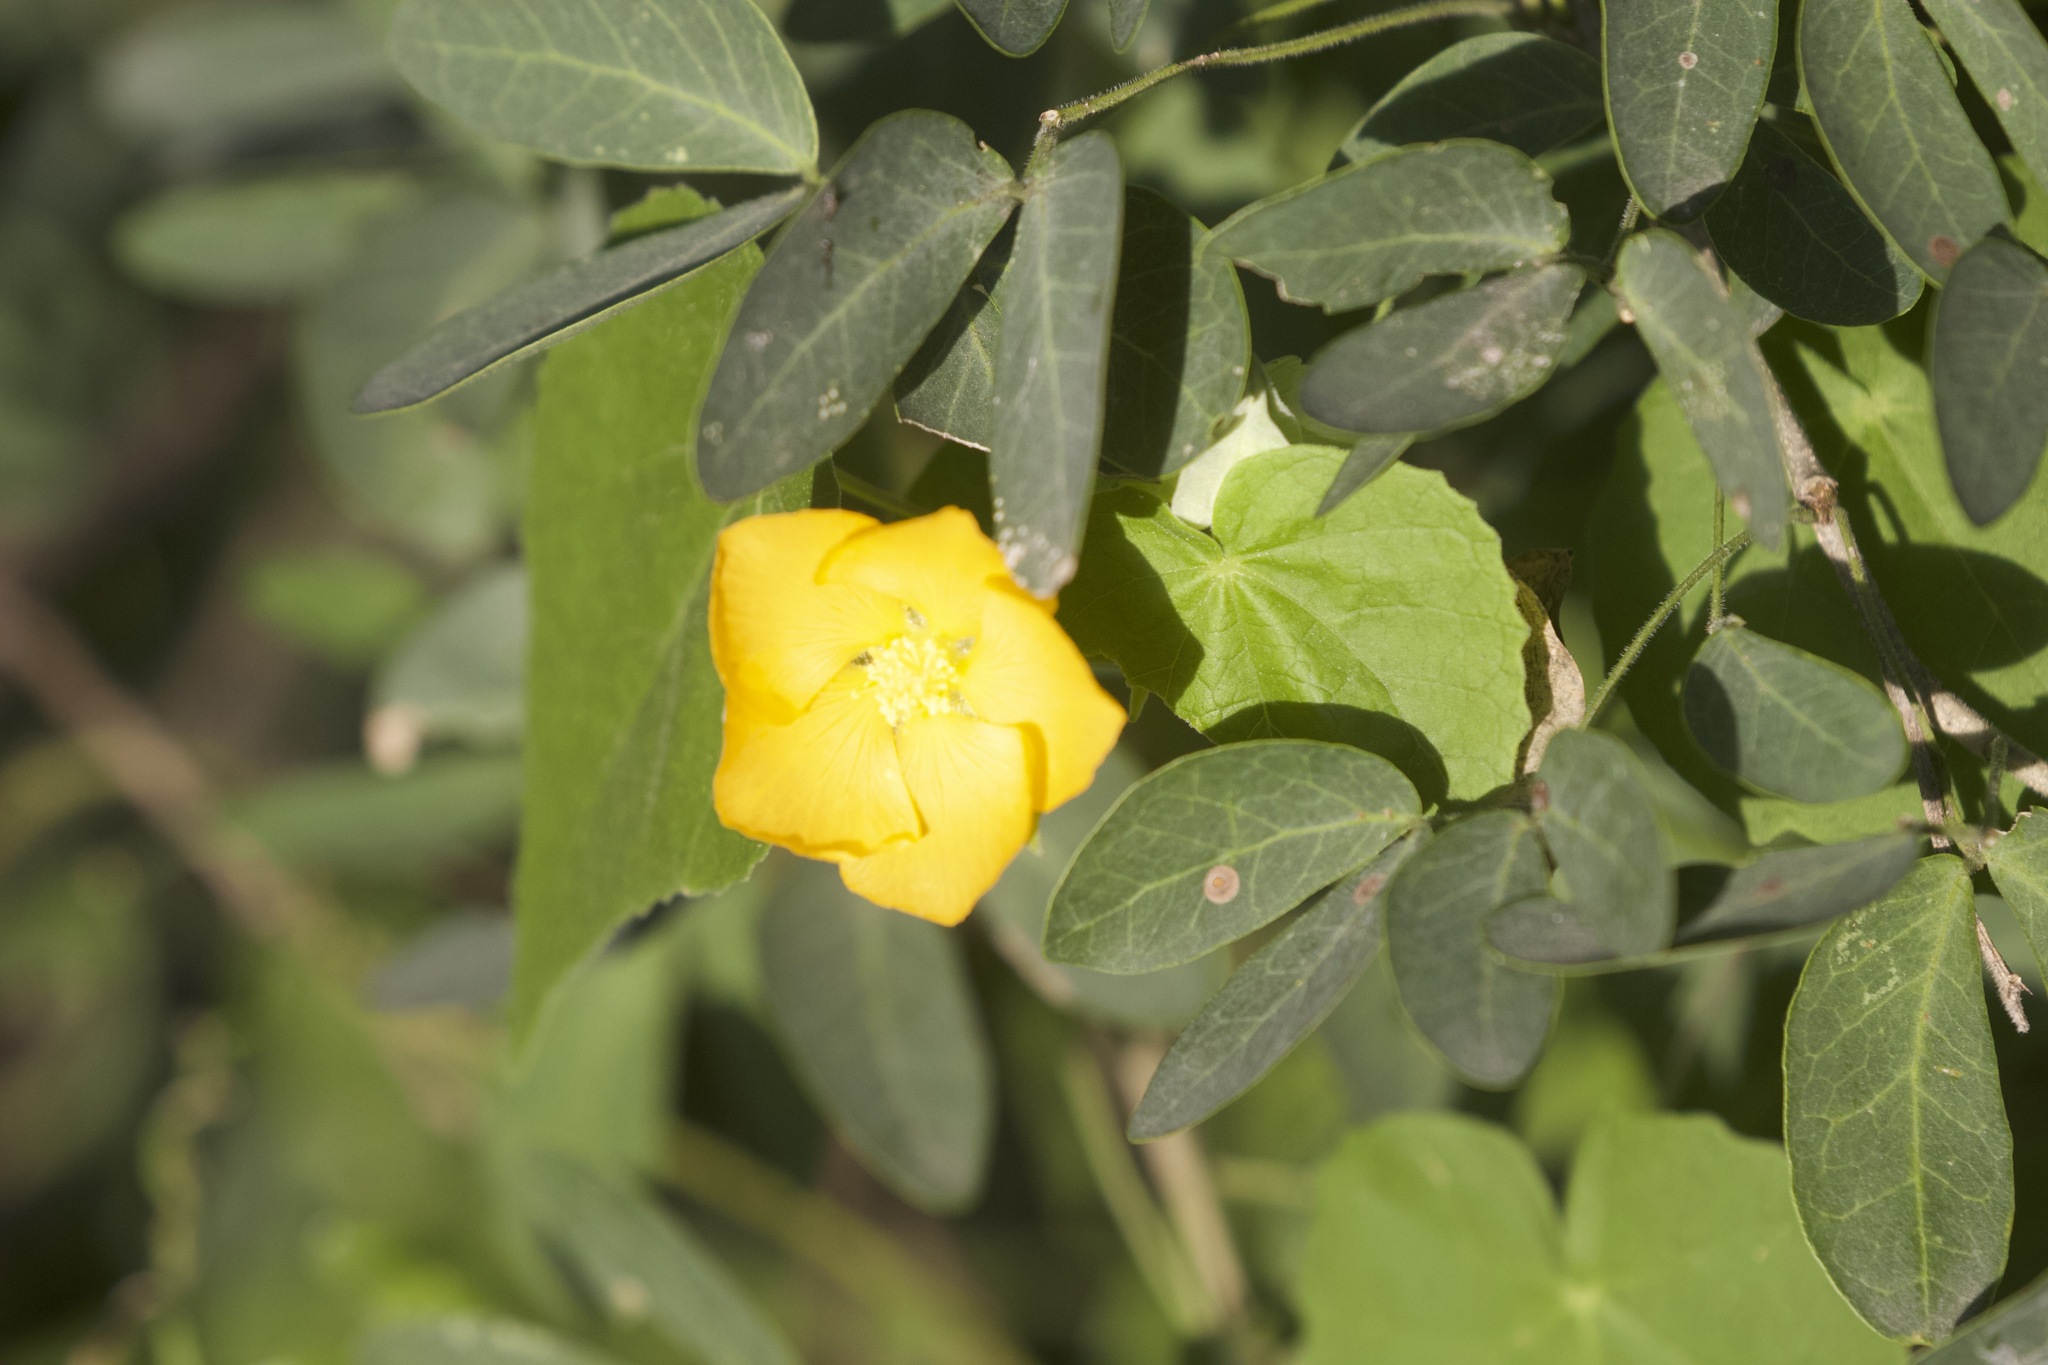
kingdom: Plantae
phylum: Tracheophyta
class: Magnoliopsida
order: Malvales
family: Malvaceae
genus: Abutilon
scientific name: Abutilon hypoleucum
